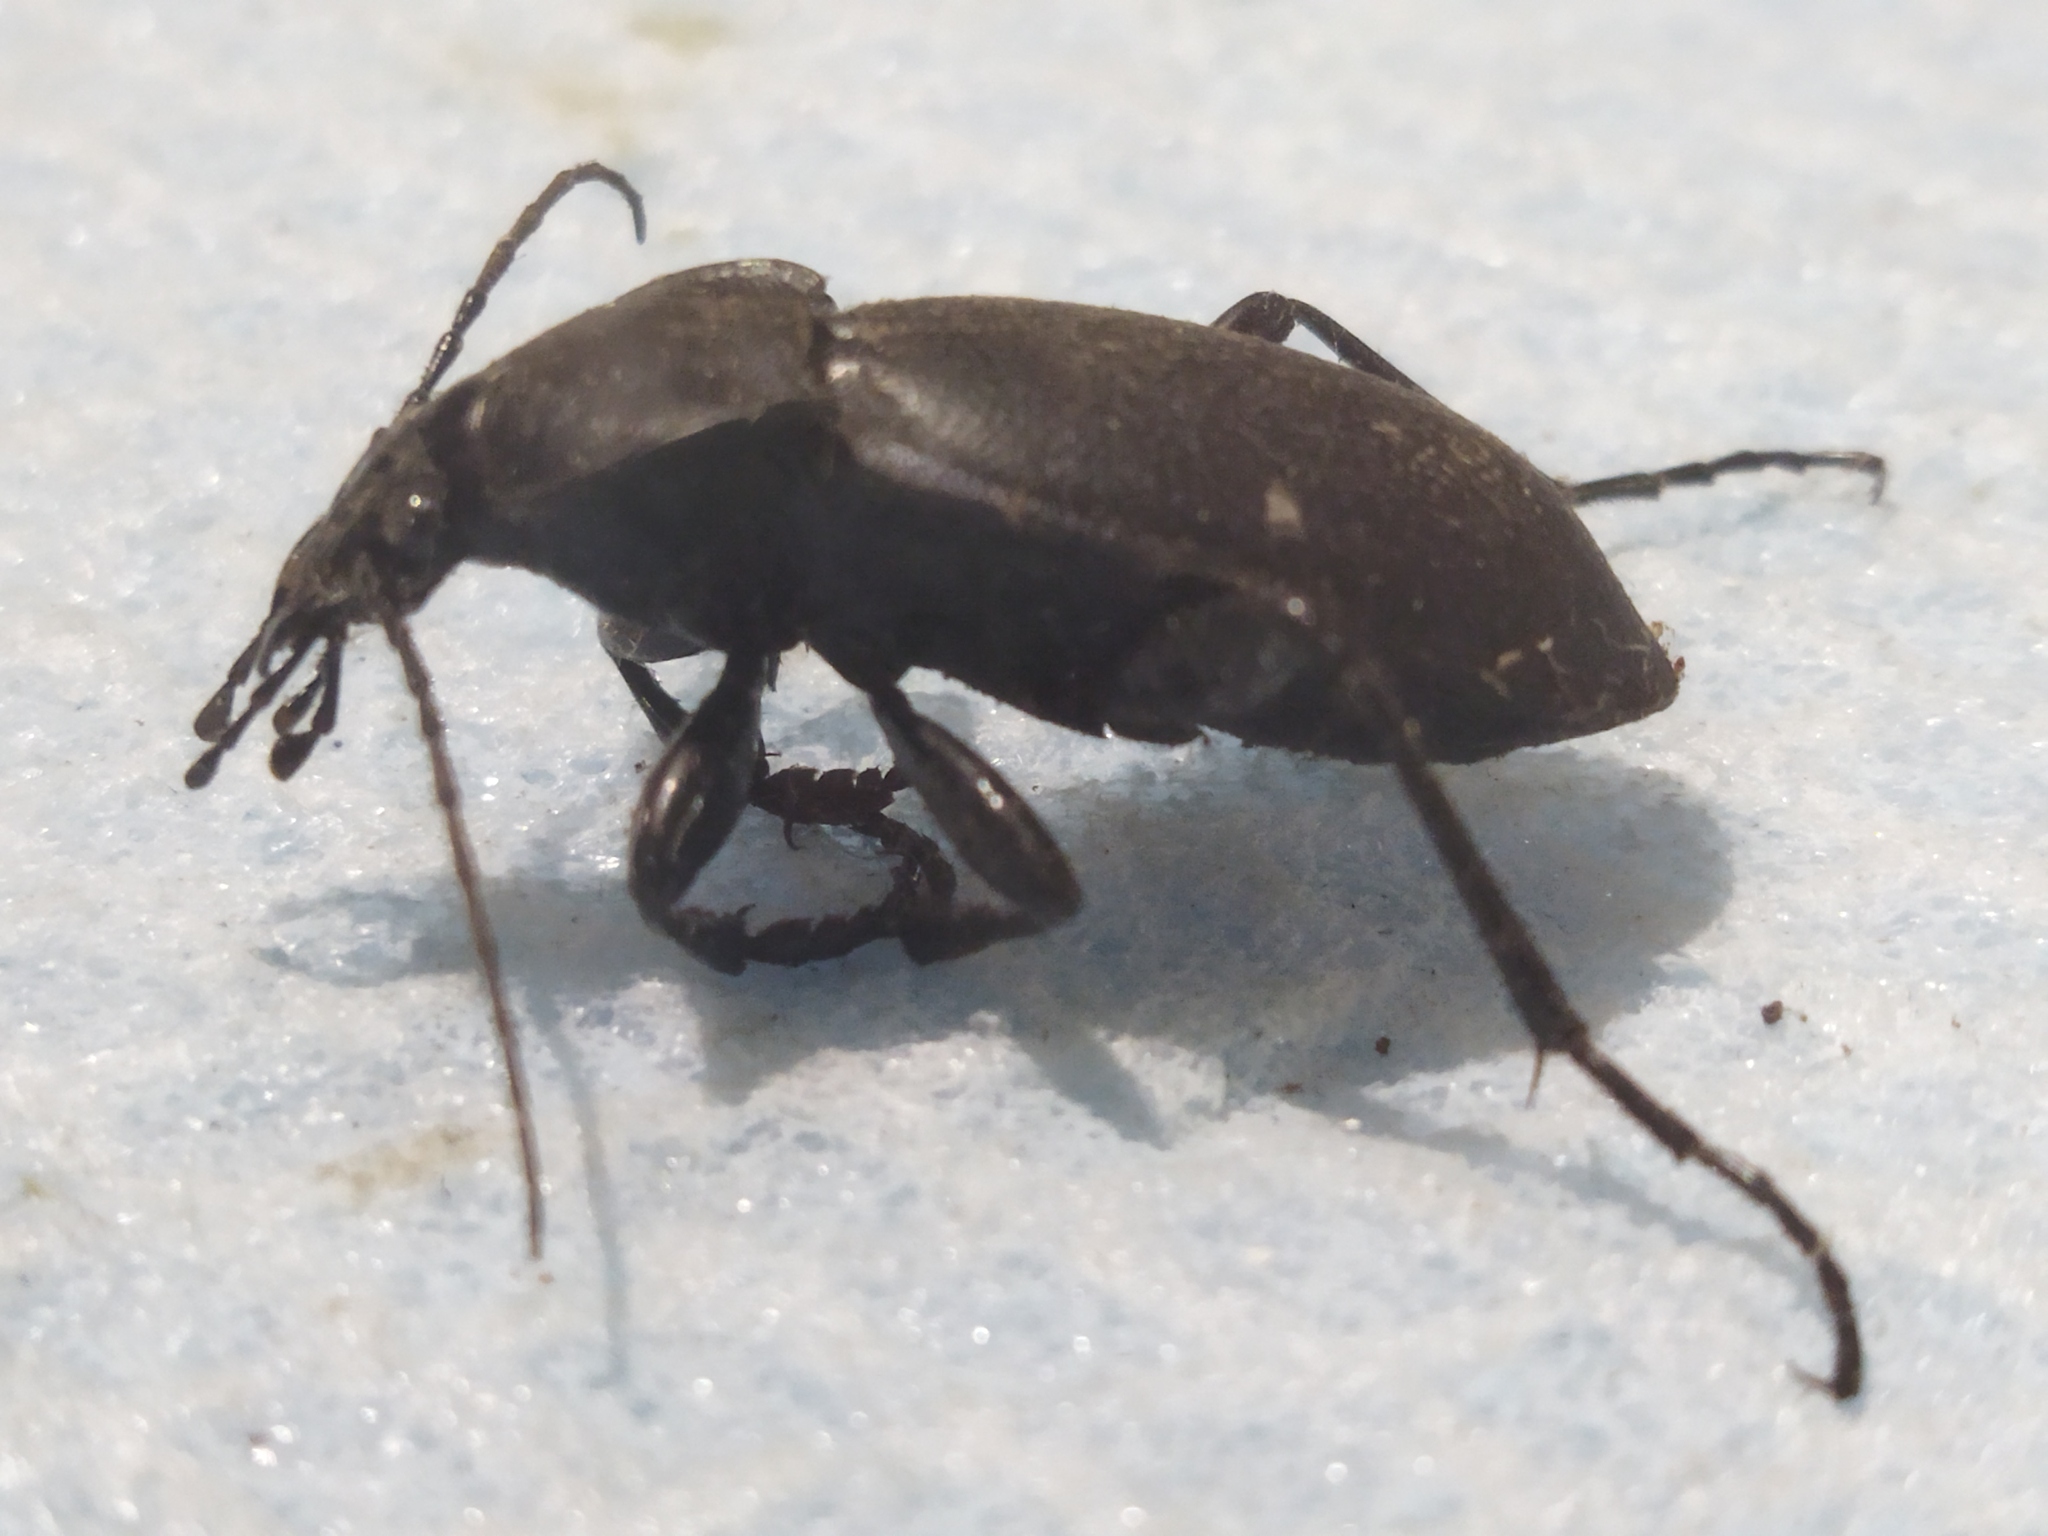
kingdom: Animalia
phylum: Arthropoda
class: Insecta
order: Coleoptera
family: Carabidae
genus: Carabus
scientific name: Carabus coriaceus
